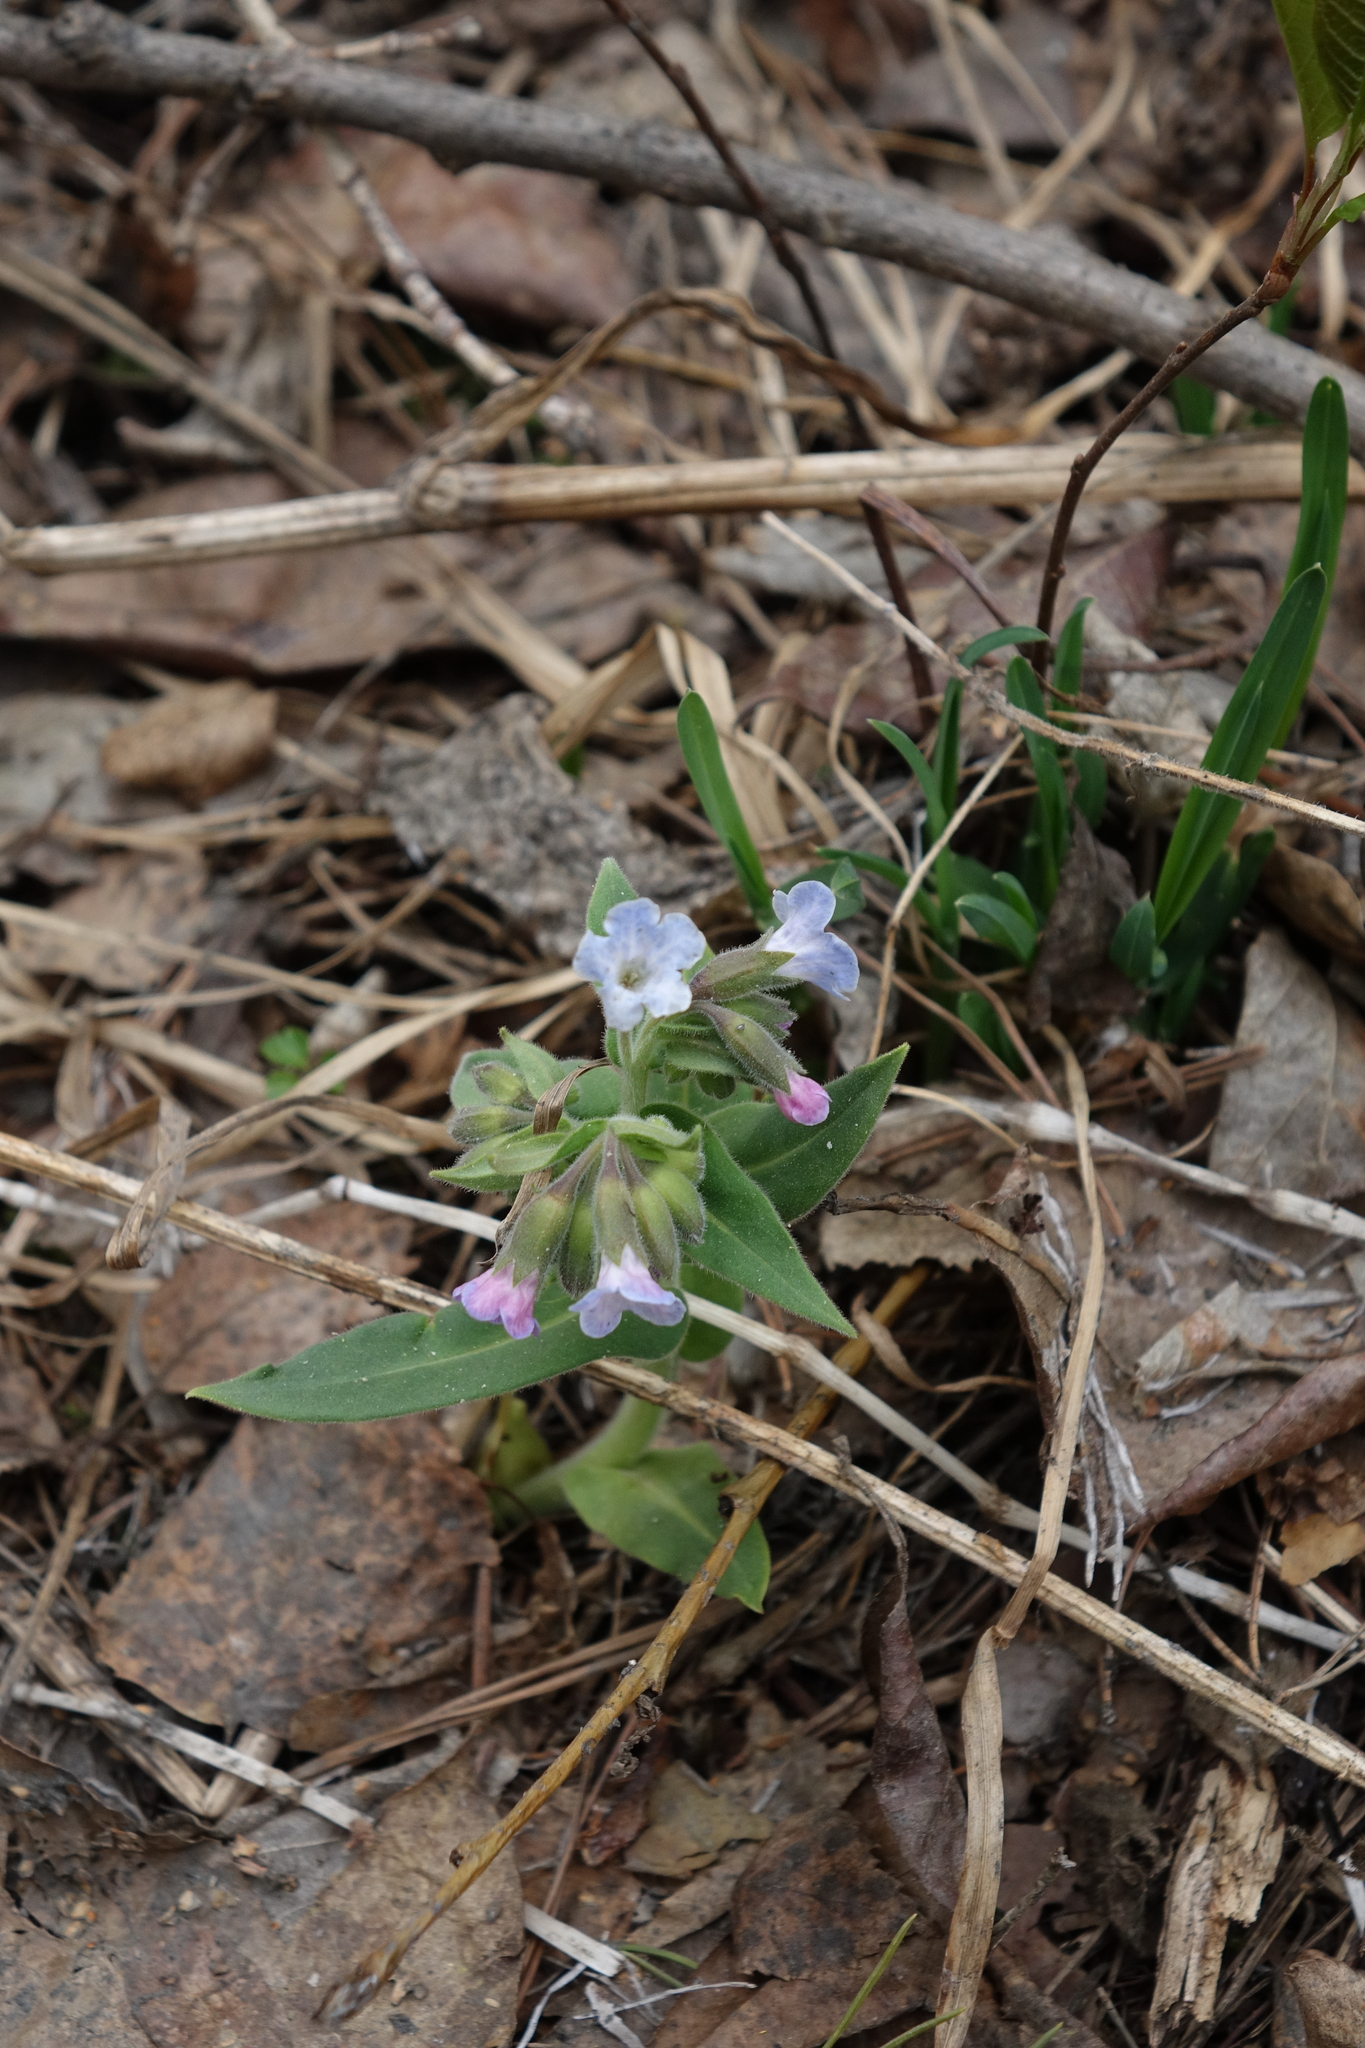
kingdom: Plantae
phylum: Tracheophyta
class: Magnoliopsida
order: Boraginales
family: Boraginaceae
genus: Pulmonaria
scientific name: Pulmonaria mollis
